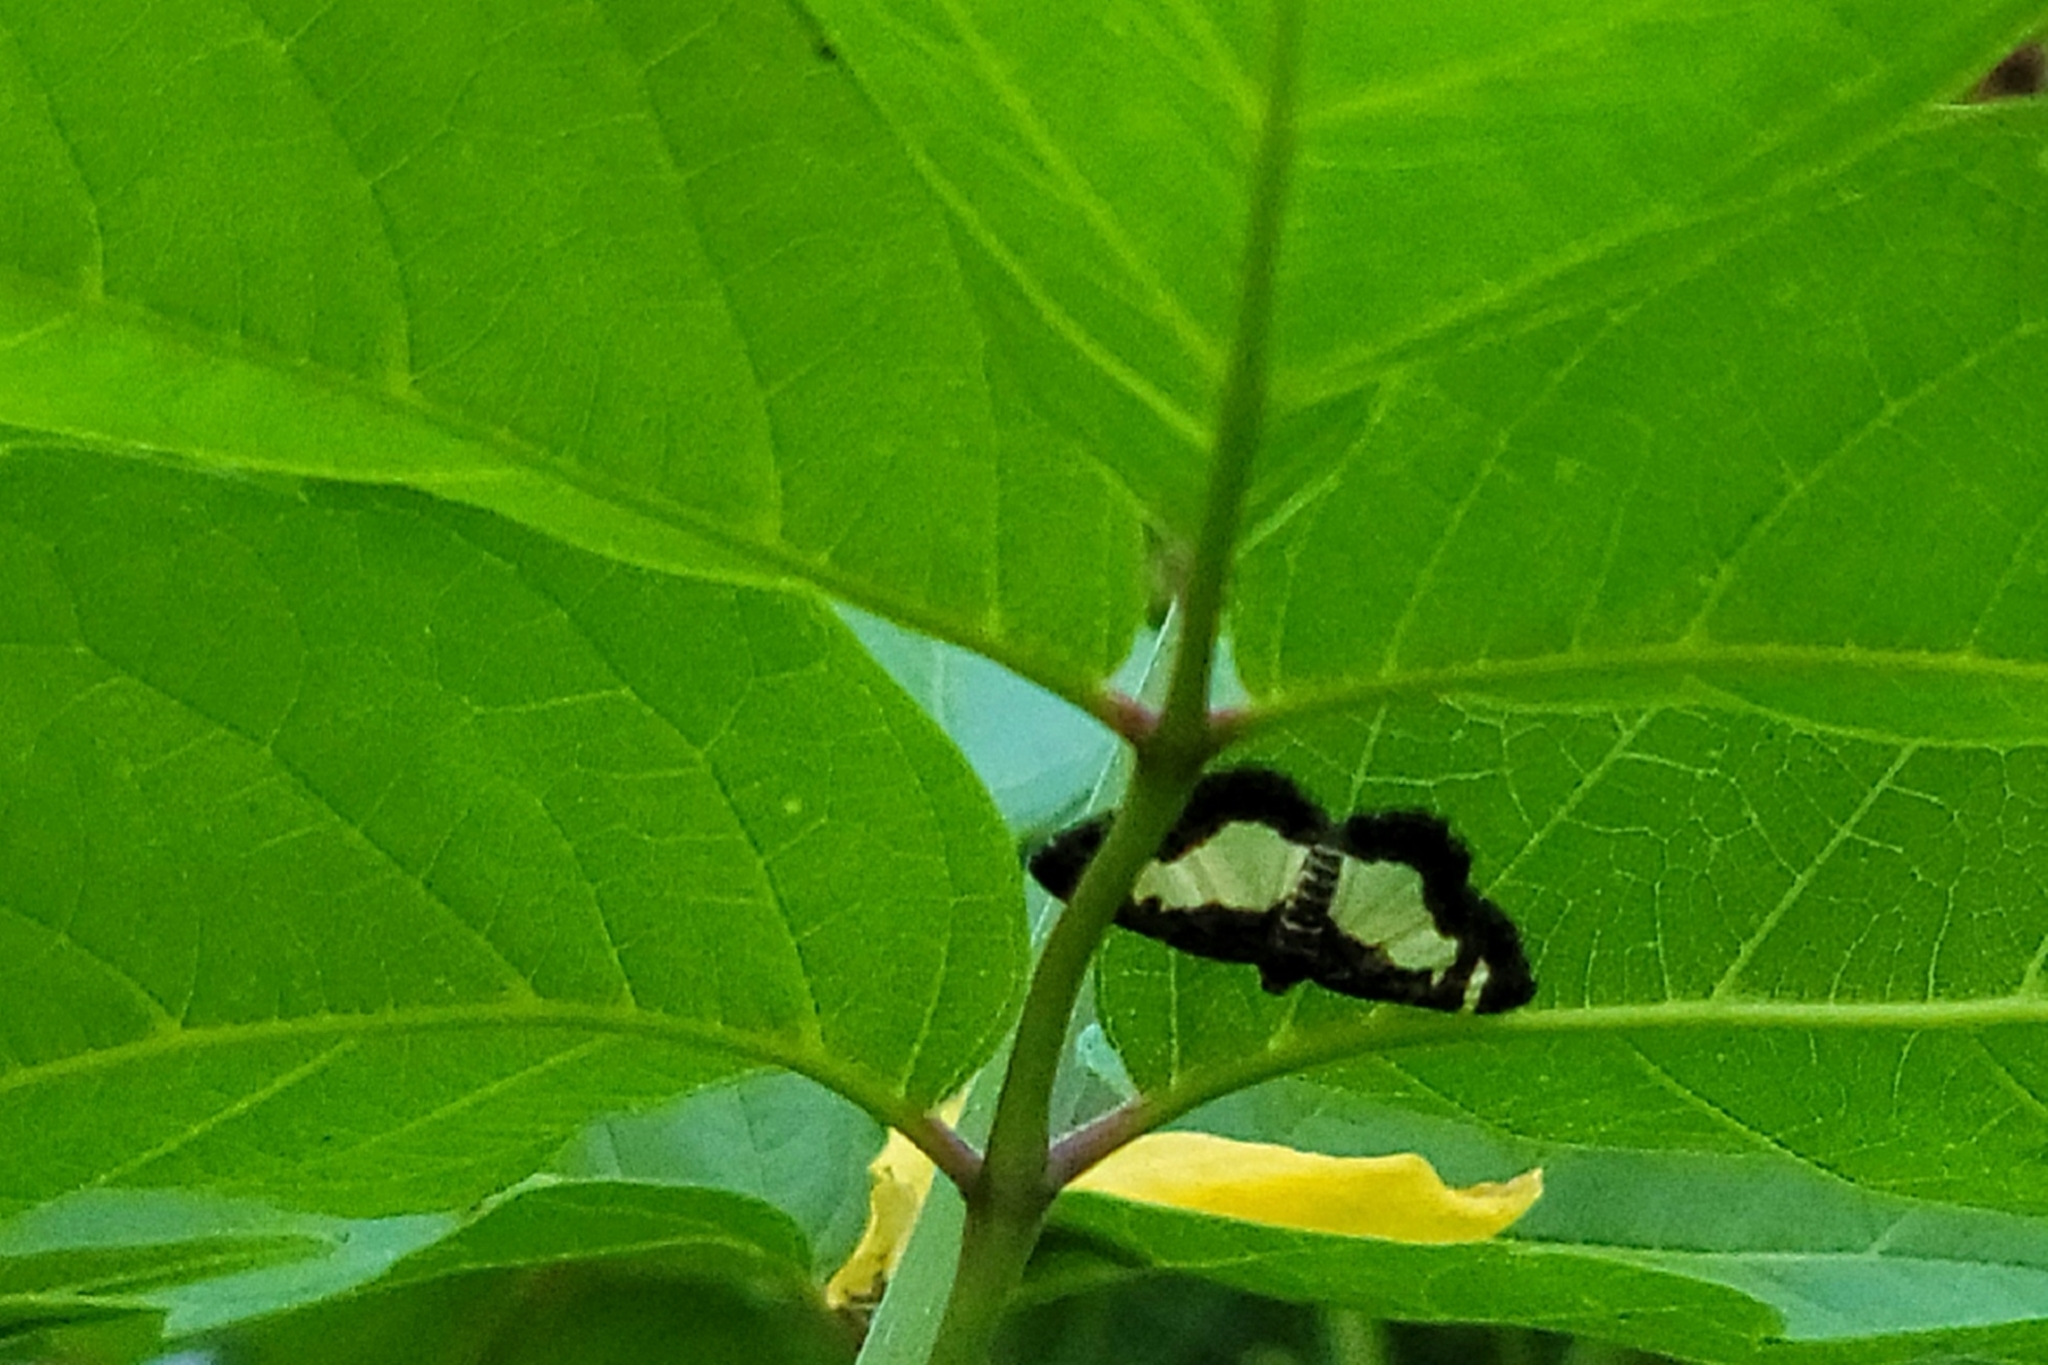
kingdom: Animalia
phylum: Arthropoda
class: Insecta
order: Lepidoptera
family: Geometridae
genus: Heliomata
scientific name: Heliomata cycladata
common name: Common spring moth
